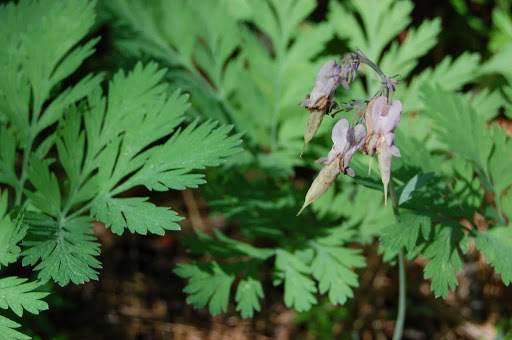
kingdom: Plantae
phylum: Tracheophyta
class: Magnoliopsida
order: Ranunculales
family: Papaveraceae
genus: Dicentra
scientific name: Dicentra formosa
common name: Bleeding-heart
